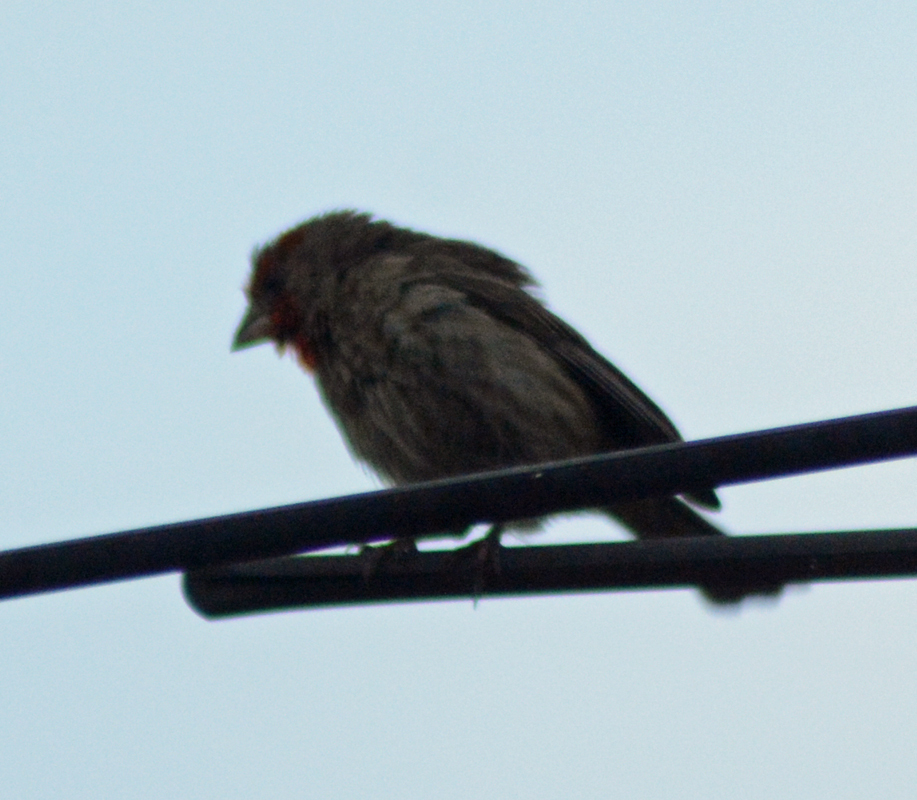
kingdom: Animalia
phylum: Chordata
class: Aves
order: Passeriformes
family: Fringillidae
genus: Haemorhous
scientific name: Haemorhous mexicanus
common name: House finch
